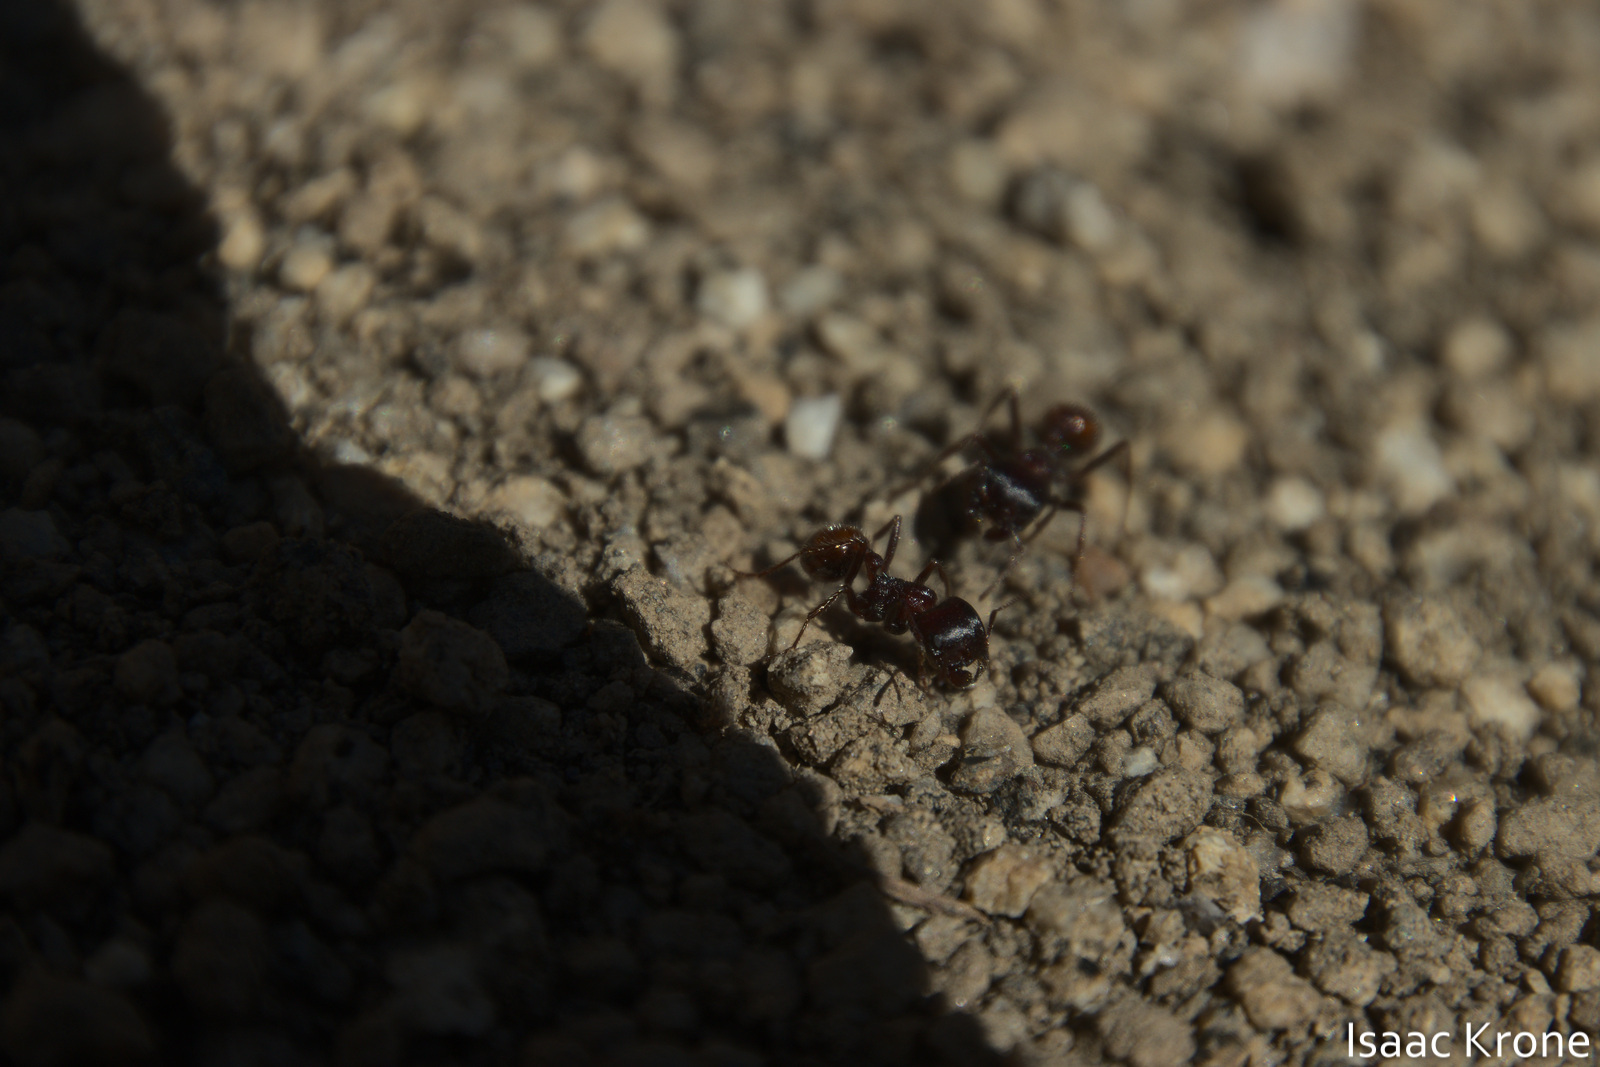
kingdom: Animalia
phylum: Arthropoda
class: Insecta
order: Hymenoptera
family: Formicidae
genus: Pogonomyrmex
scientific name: Pogonomyrmex rugosus
